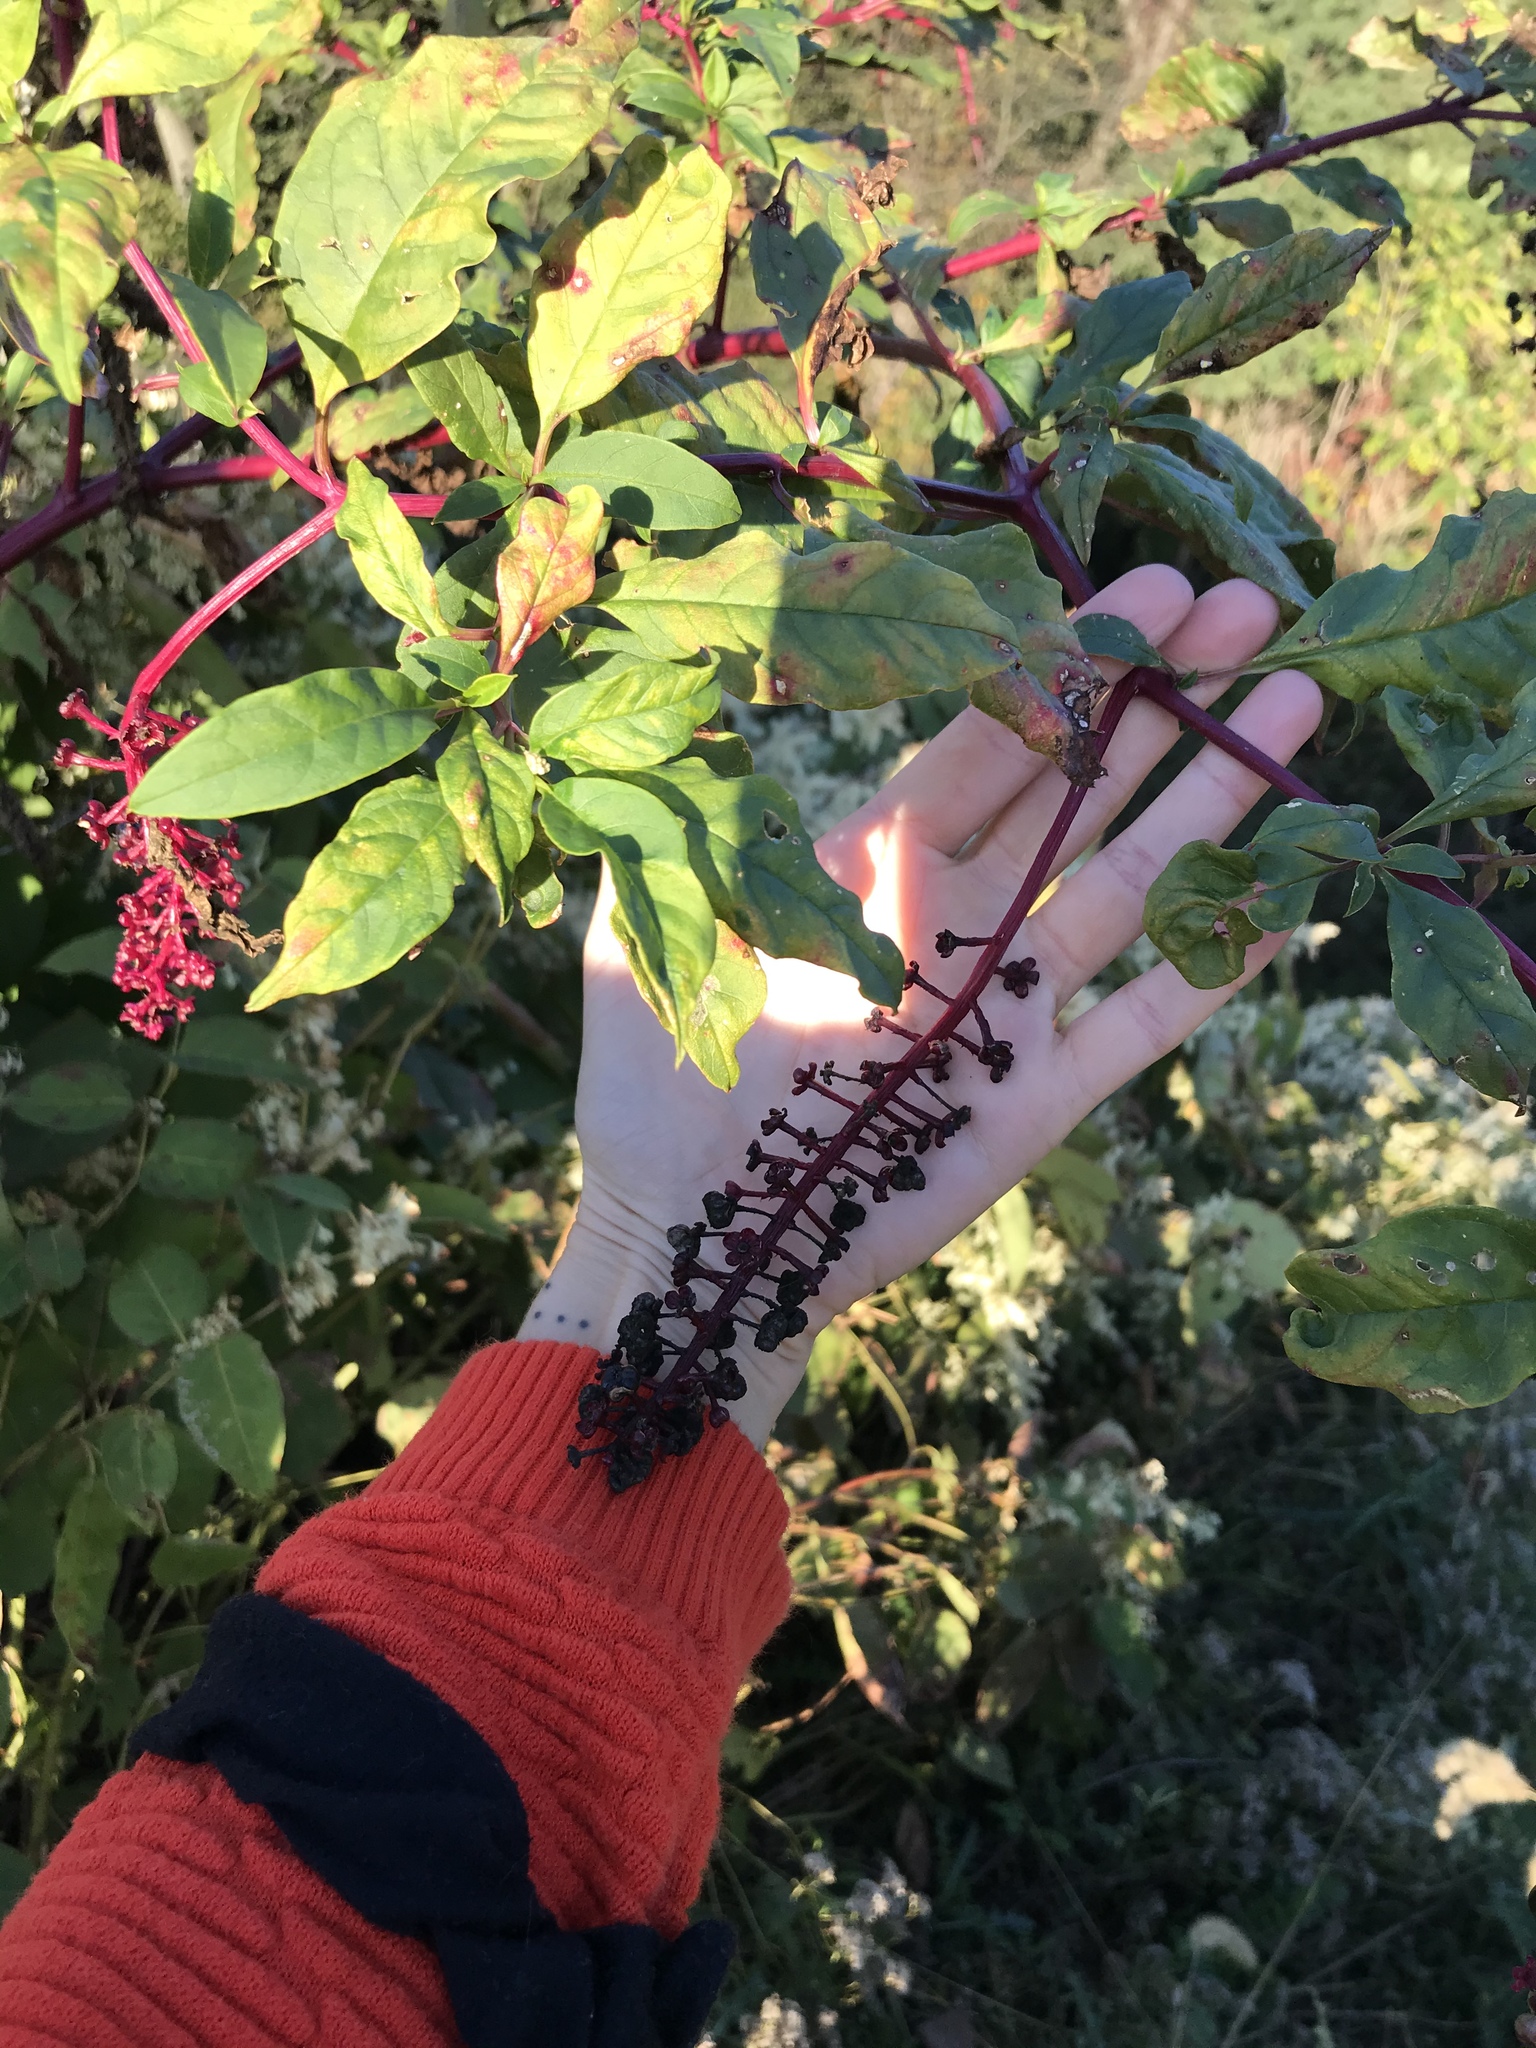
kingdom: Plantae
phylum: Tracheophyta
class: Magnoliopsida
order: Caryophyllales
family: Phytolaccaceae
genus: Phytolacca
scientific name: Phytolacca americana
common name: American pokeweed
